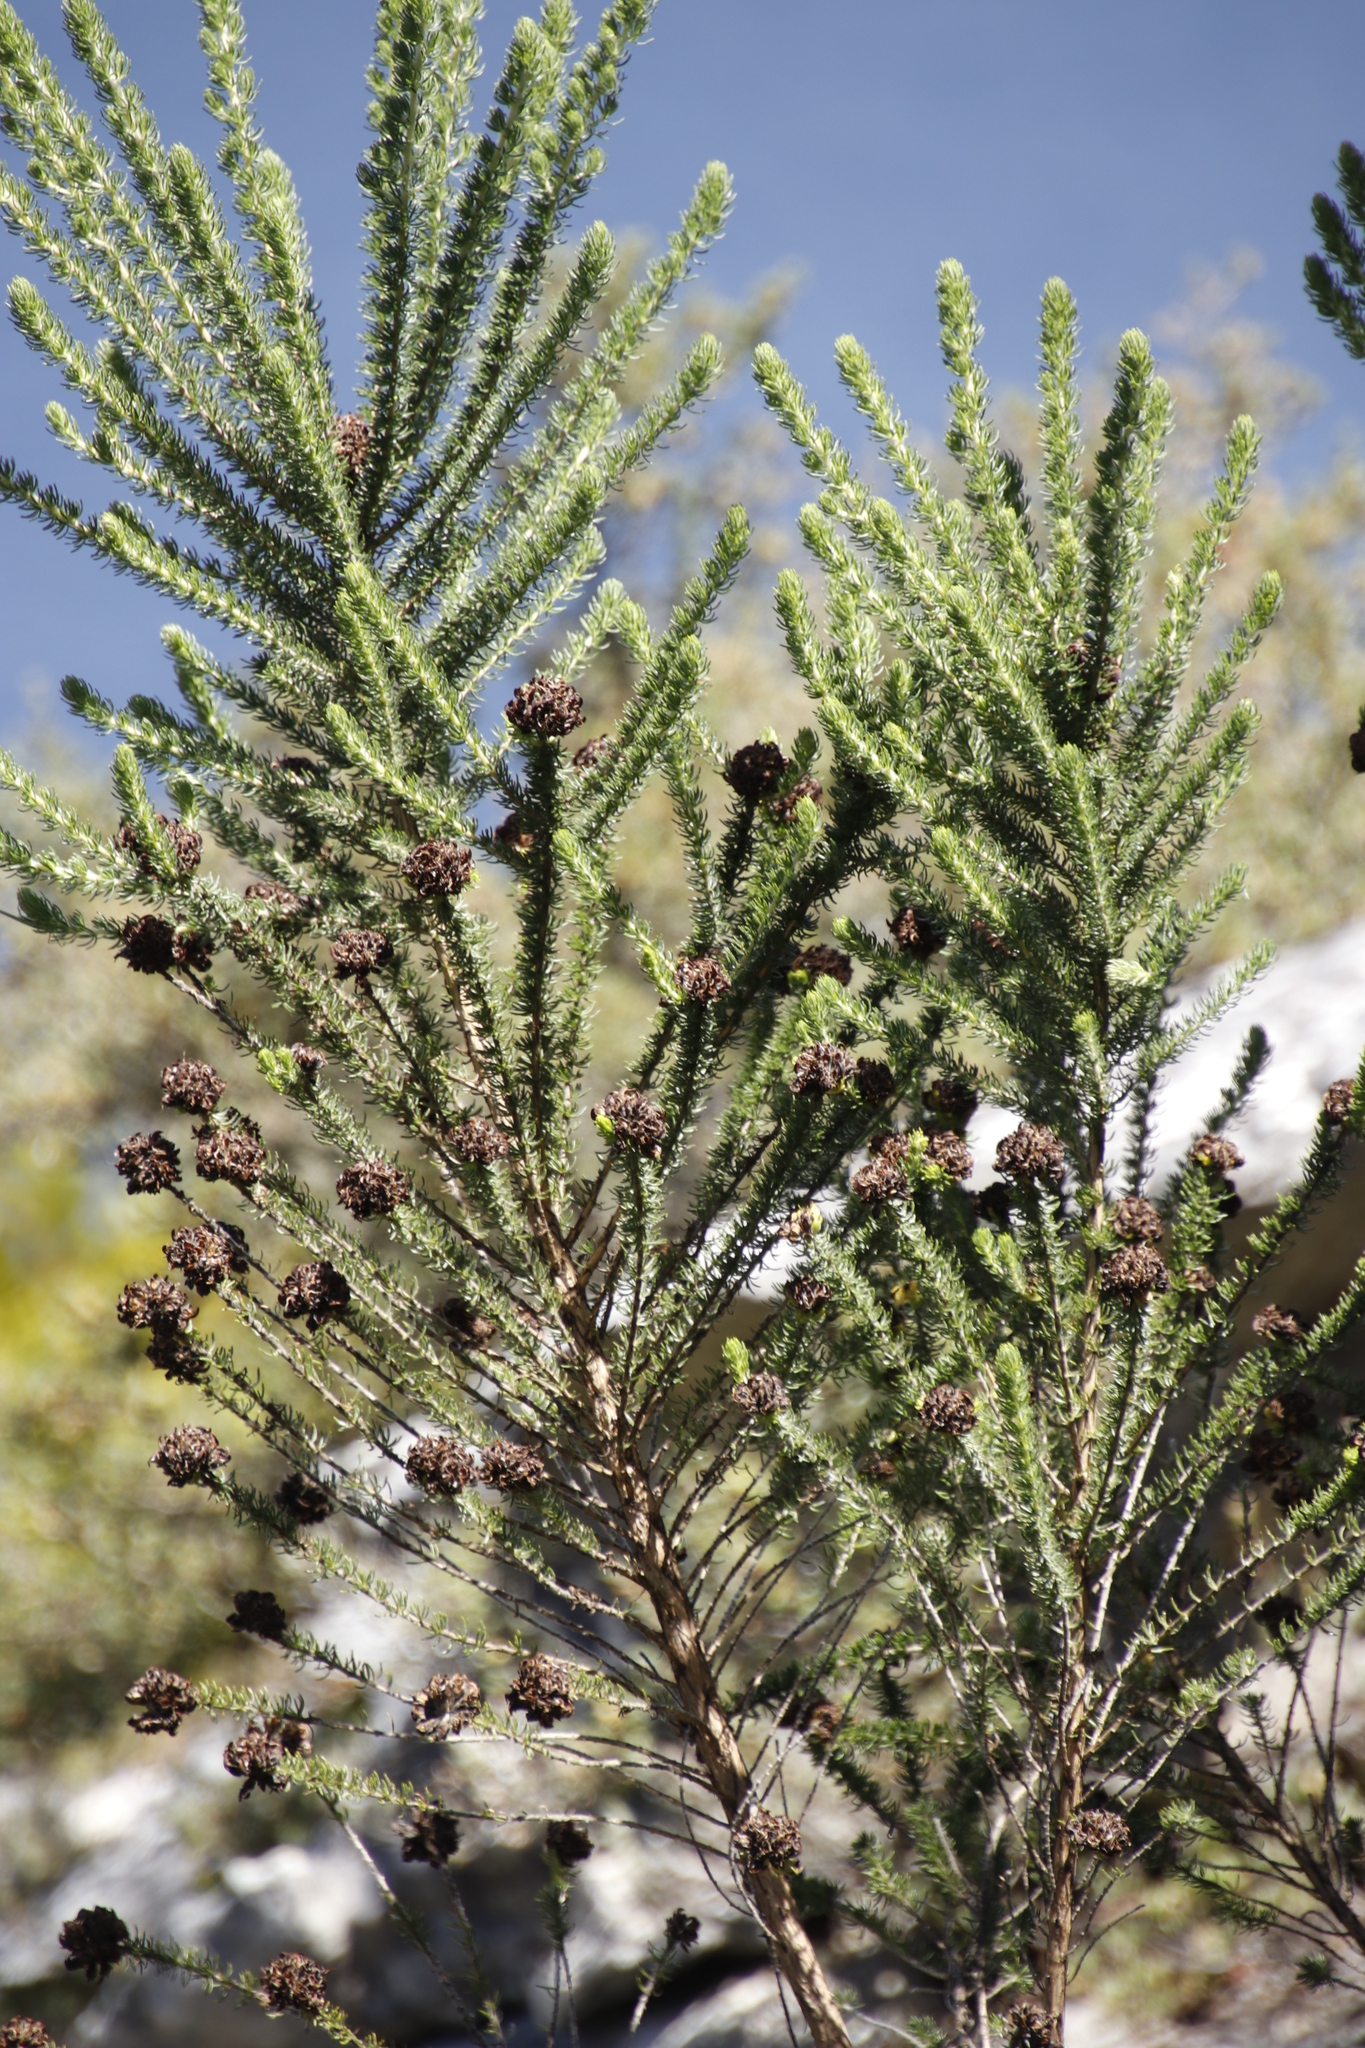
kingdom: Plantae
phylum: Tracheophyta
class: Magnoliopsida
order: Fabales
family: Fabaceae
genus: Aspalathus
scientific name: Aspalathus capitata
